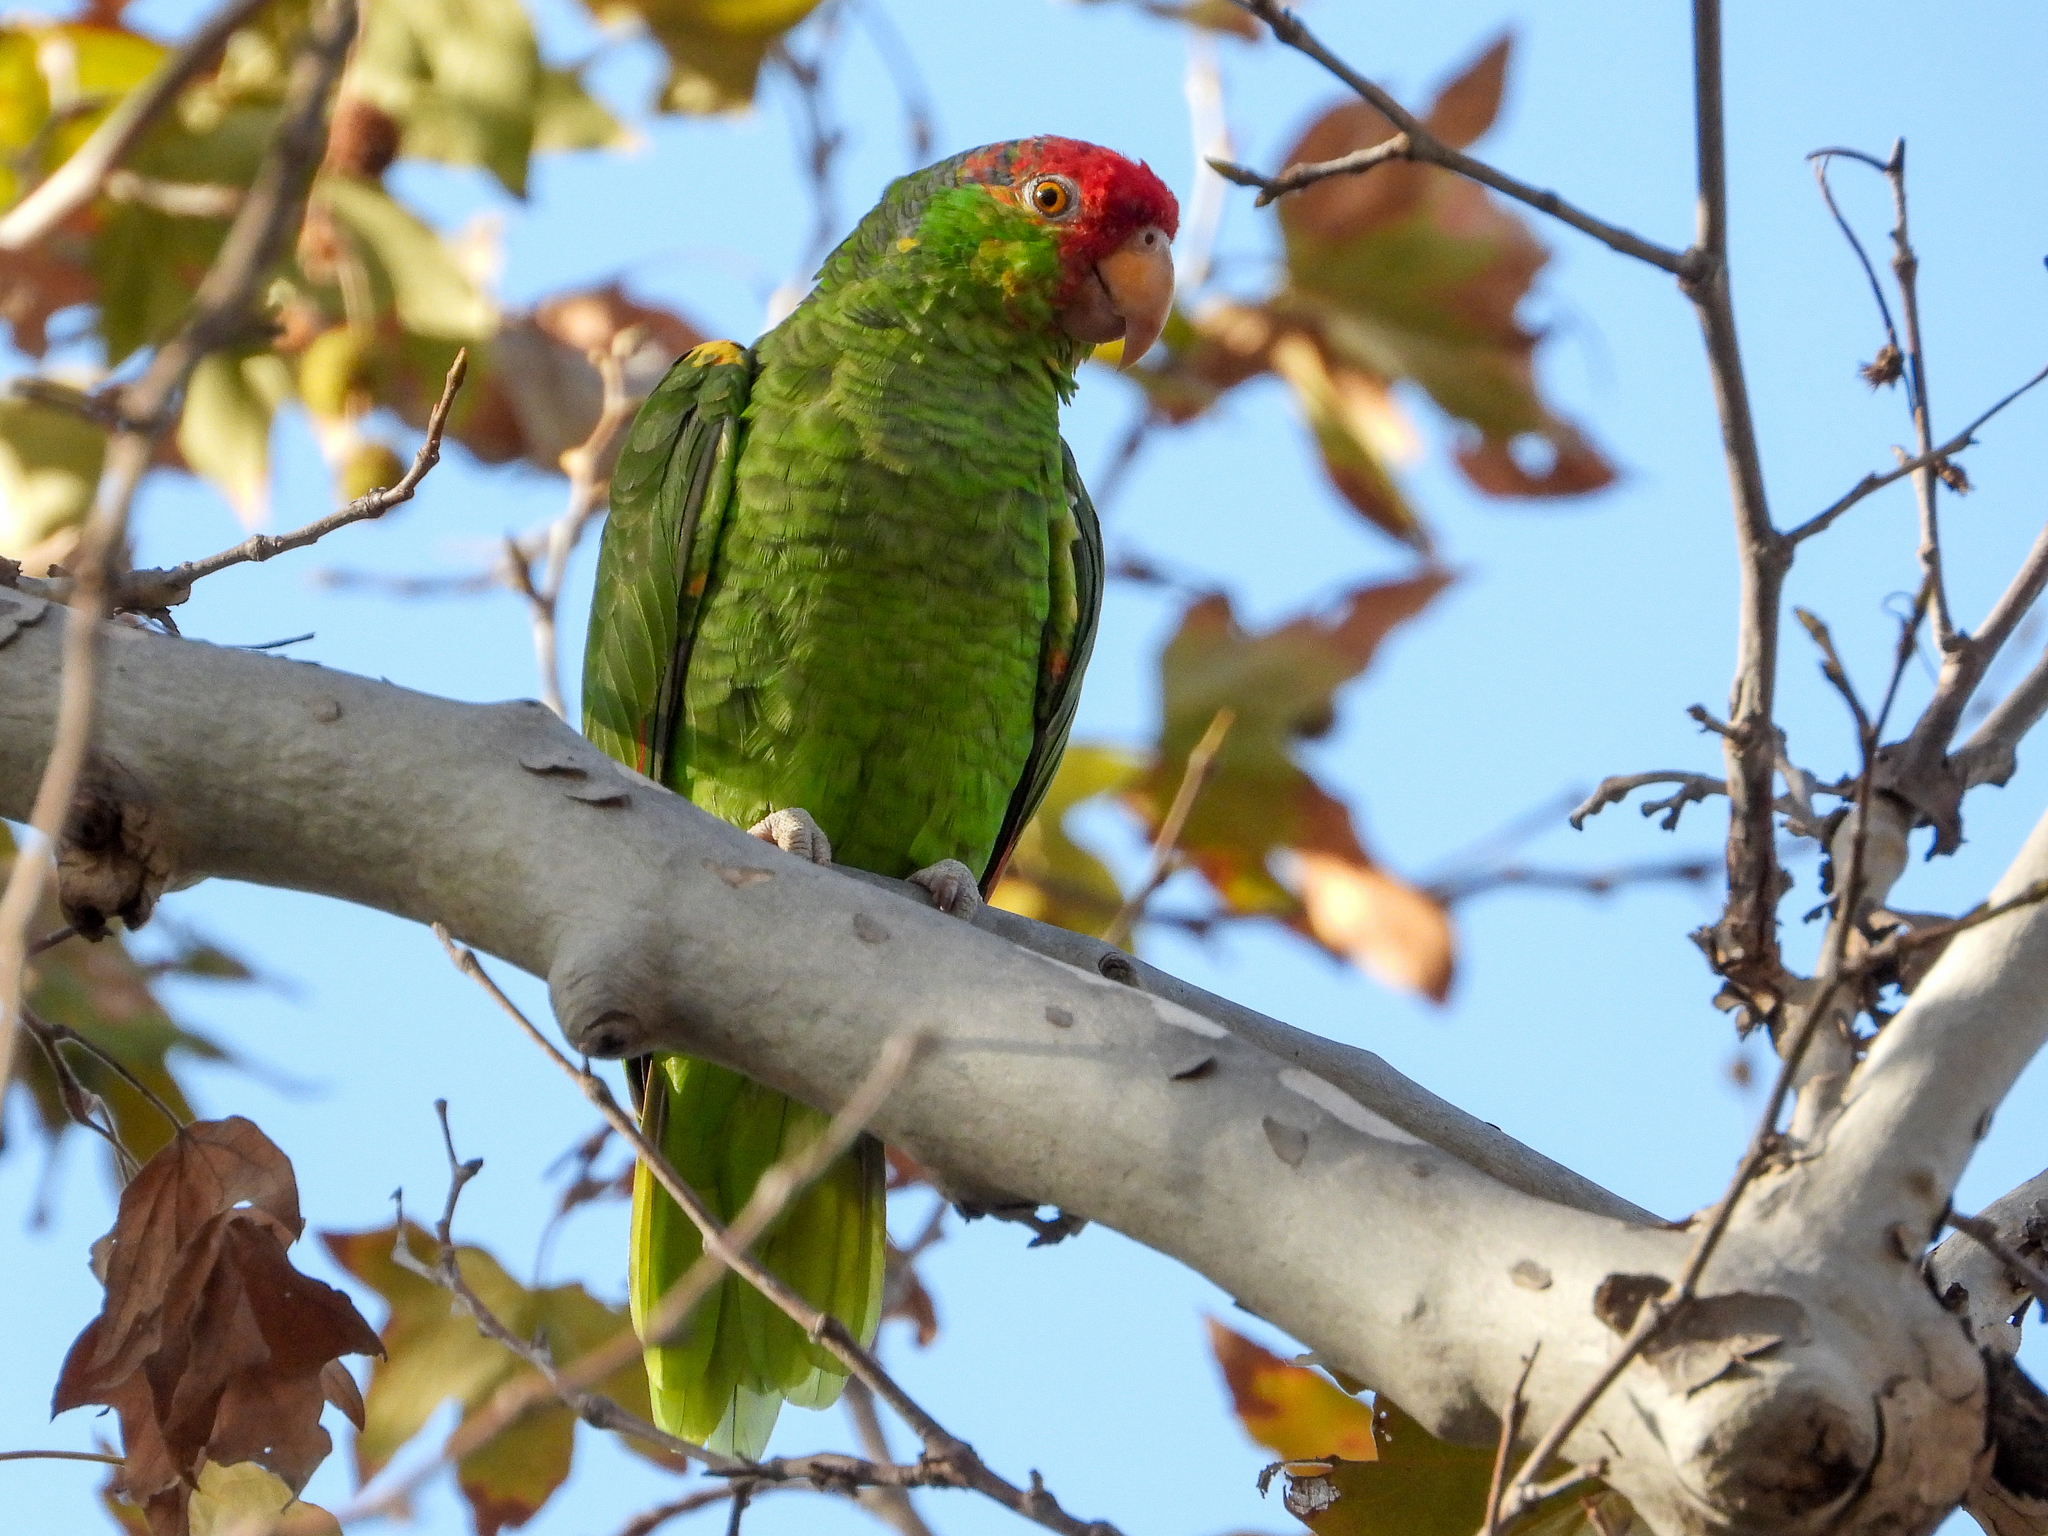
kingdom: Animalia
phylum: Chordata
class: Aves
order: Psittaciformes
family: Psittacidae
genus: Amazona
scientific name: Amazona
